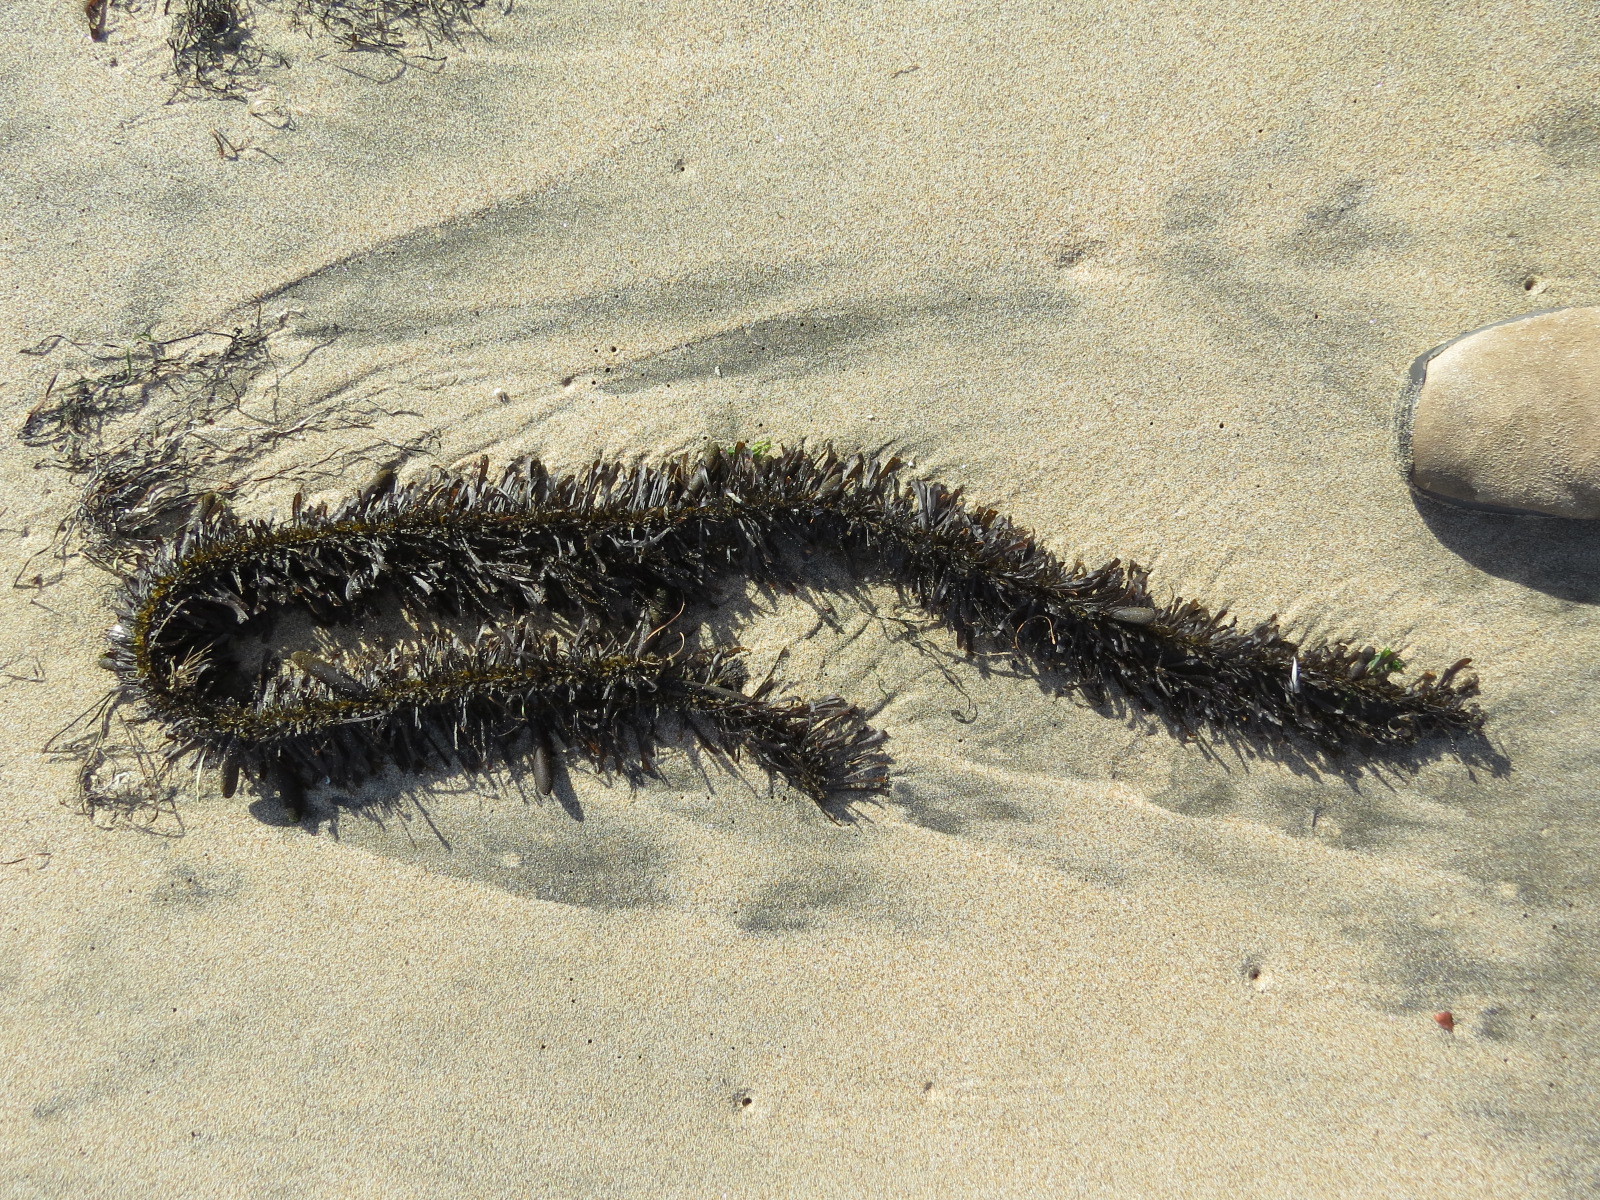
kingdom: Chromista
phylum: Ochrophyta
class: Phaeophyceae
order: Laminariales
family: Lessoniaceae
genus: Egregia
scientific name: Egregia menziesii
